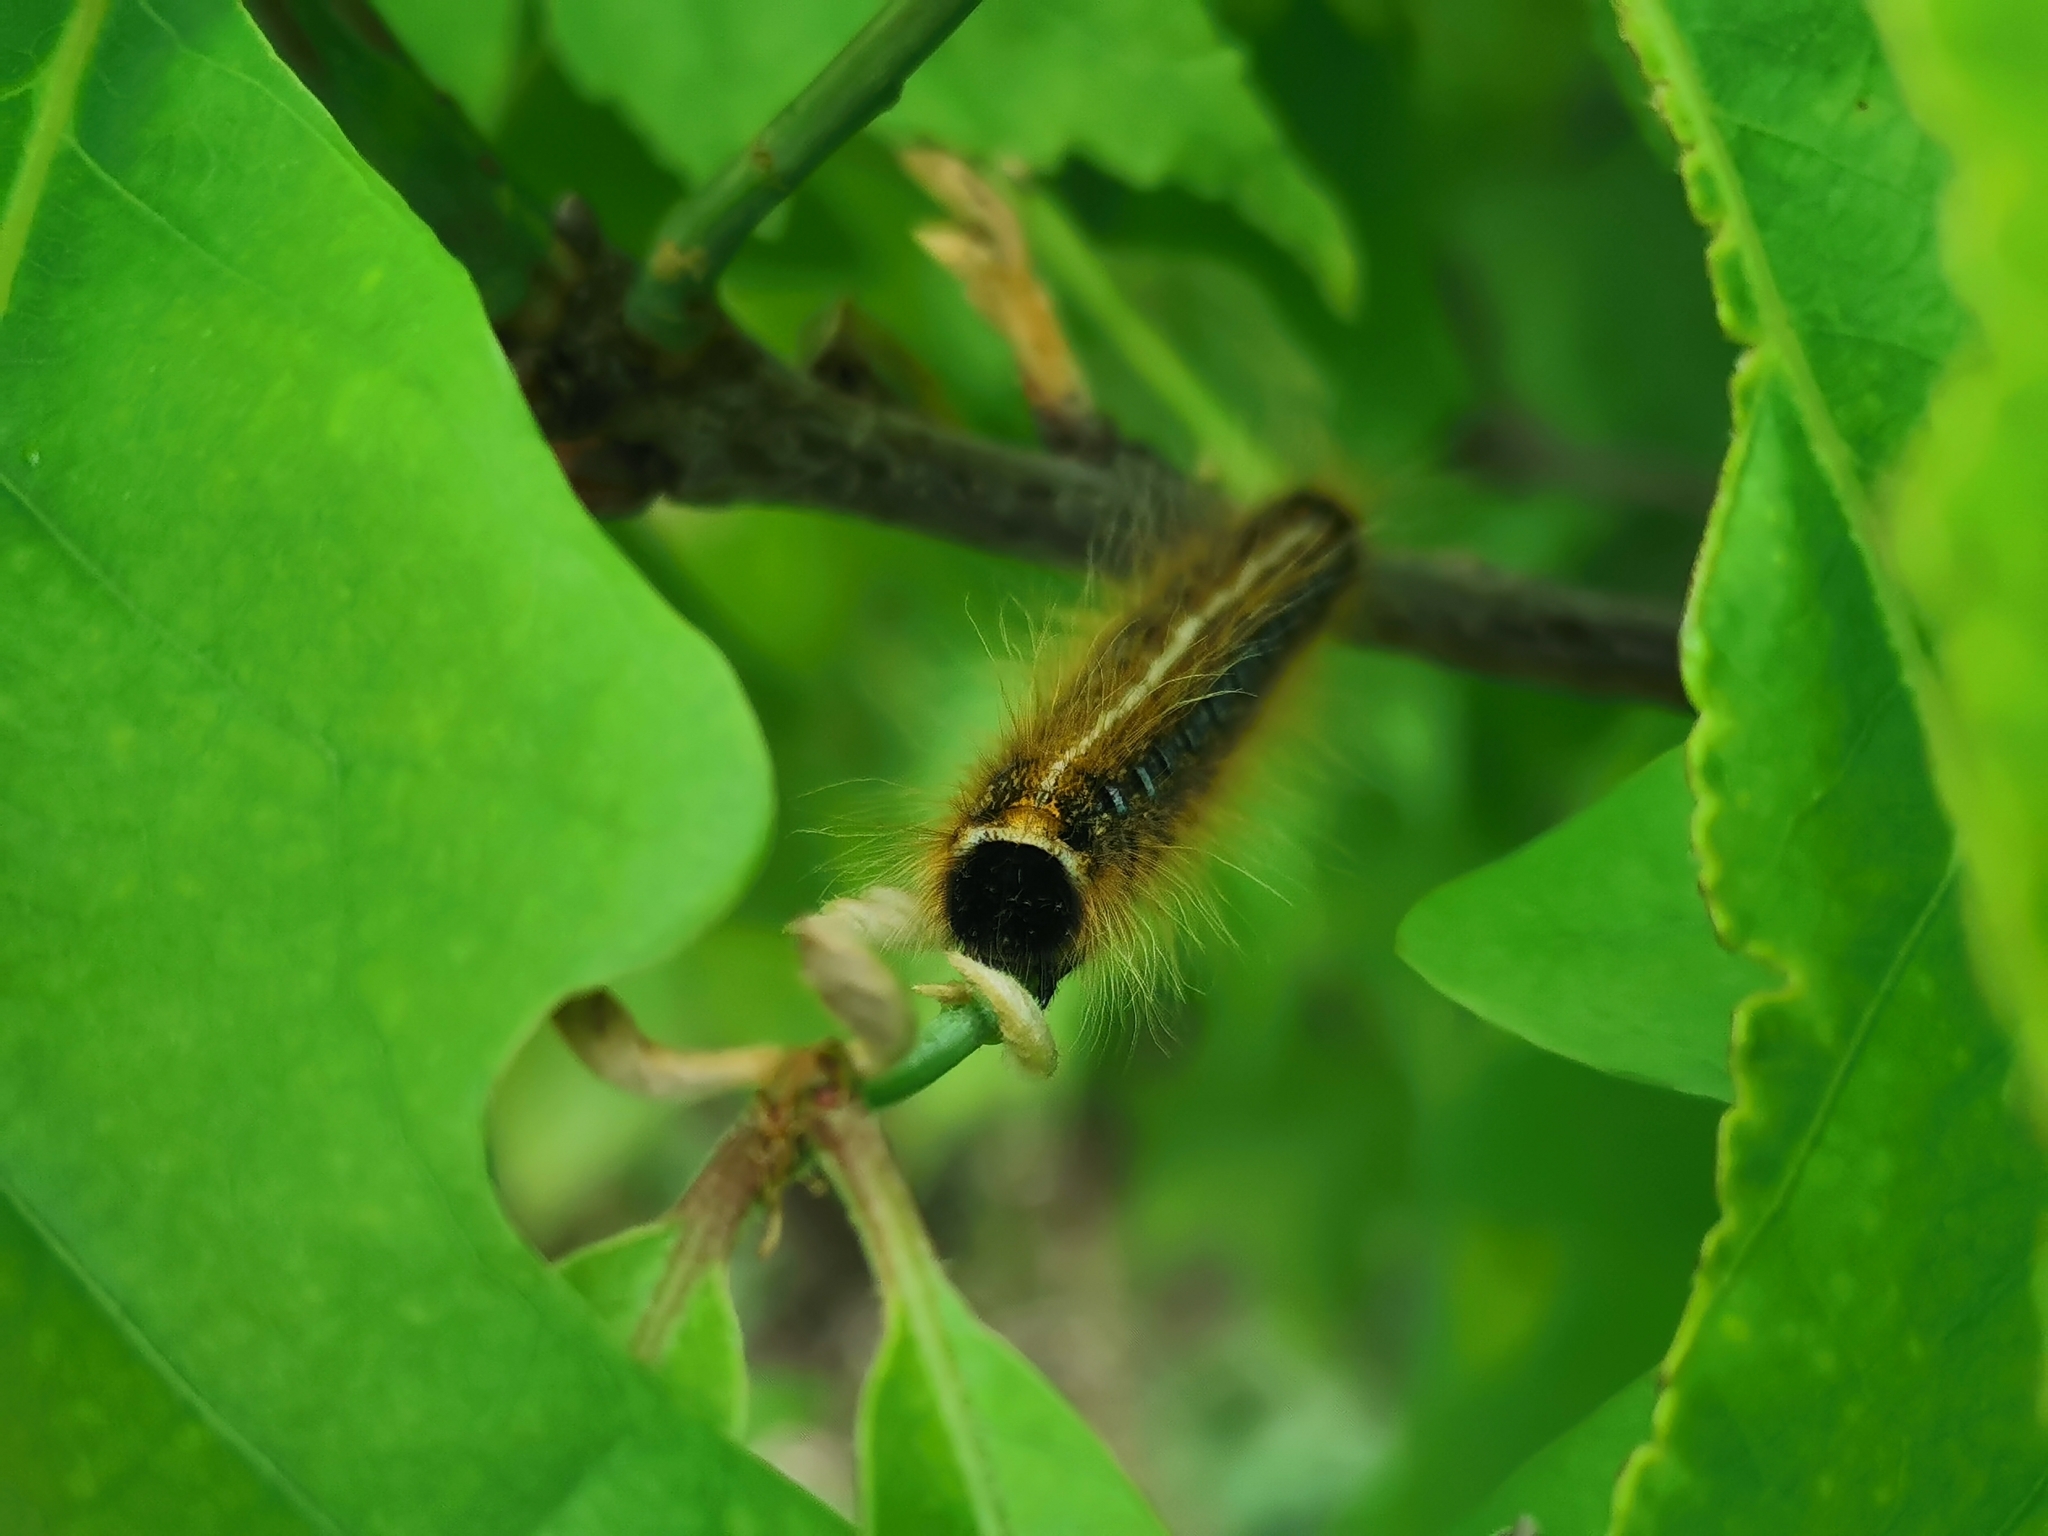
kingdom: Animalia
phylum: Arthropoda
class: Insecta
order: Lepidoptera
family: Lasiocampidae
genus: Malacosoma
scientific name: Malacosoma americana
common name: Eastern tent caterpillar moth
